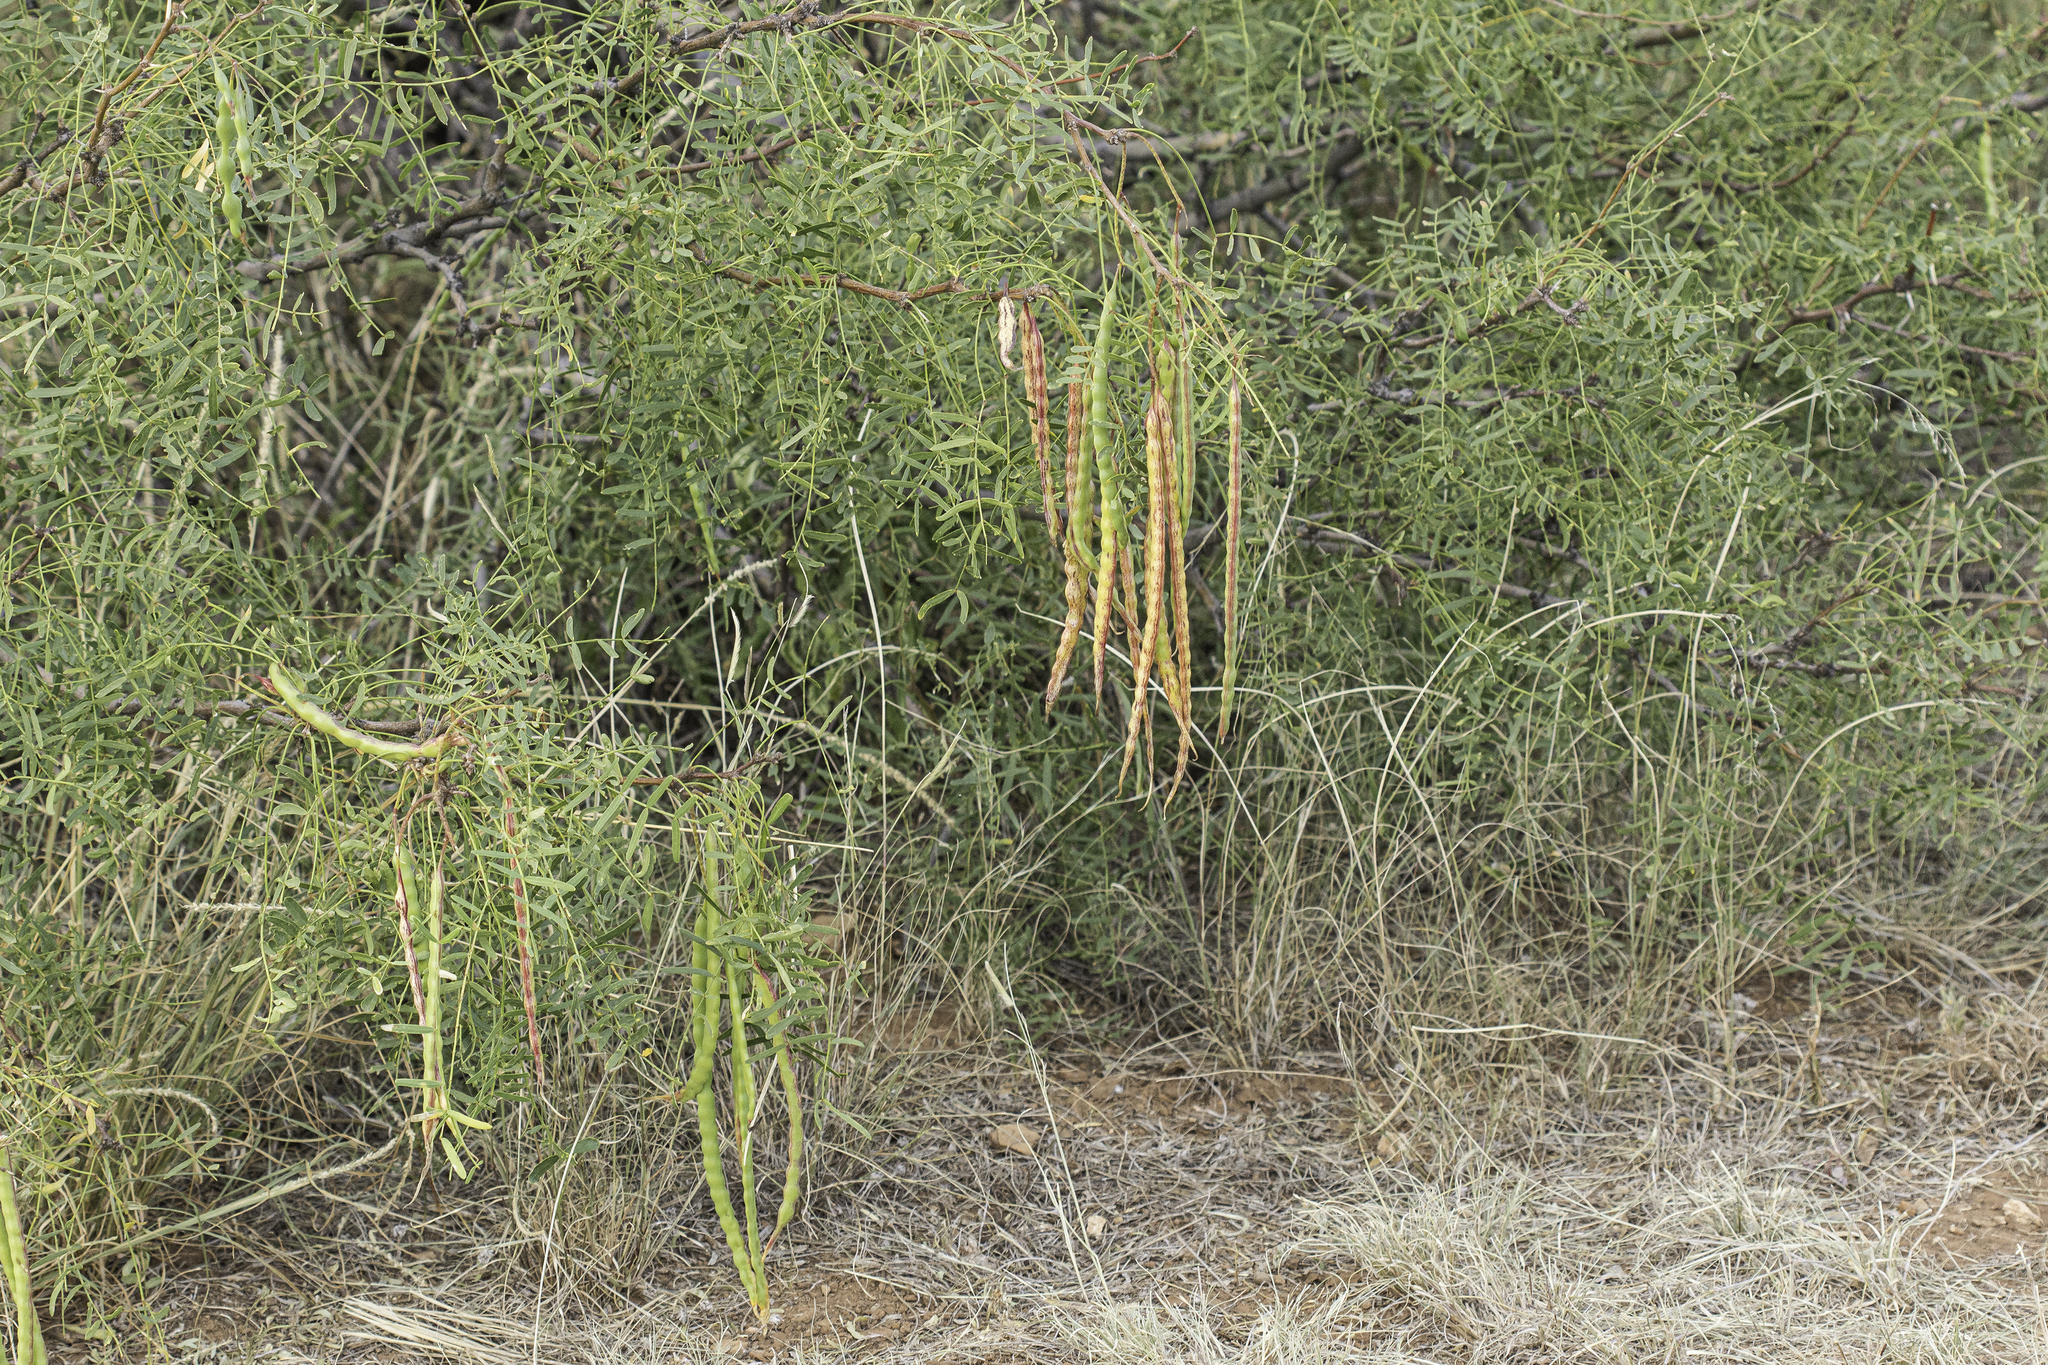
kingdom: Plantae
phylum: Tracheophyta
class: Magnoliopsida
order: Fabales
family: Fabaceae
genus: Prosopis
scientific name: Prosopis glandulosa
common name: Honey mesquite
